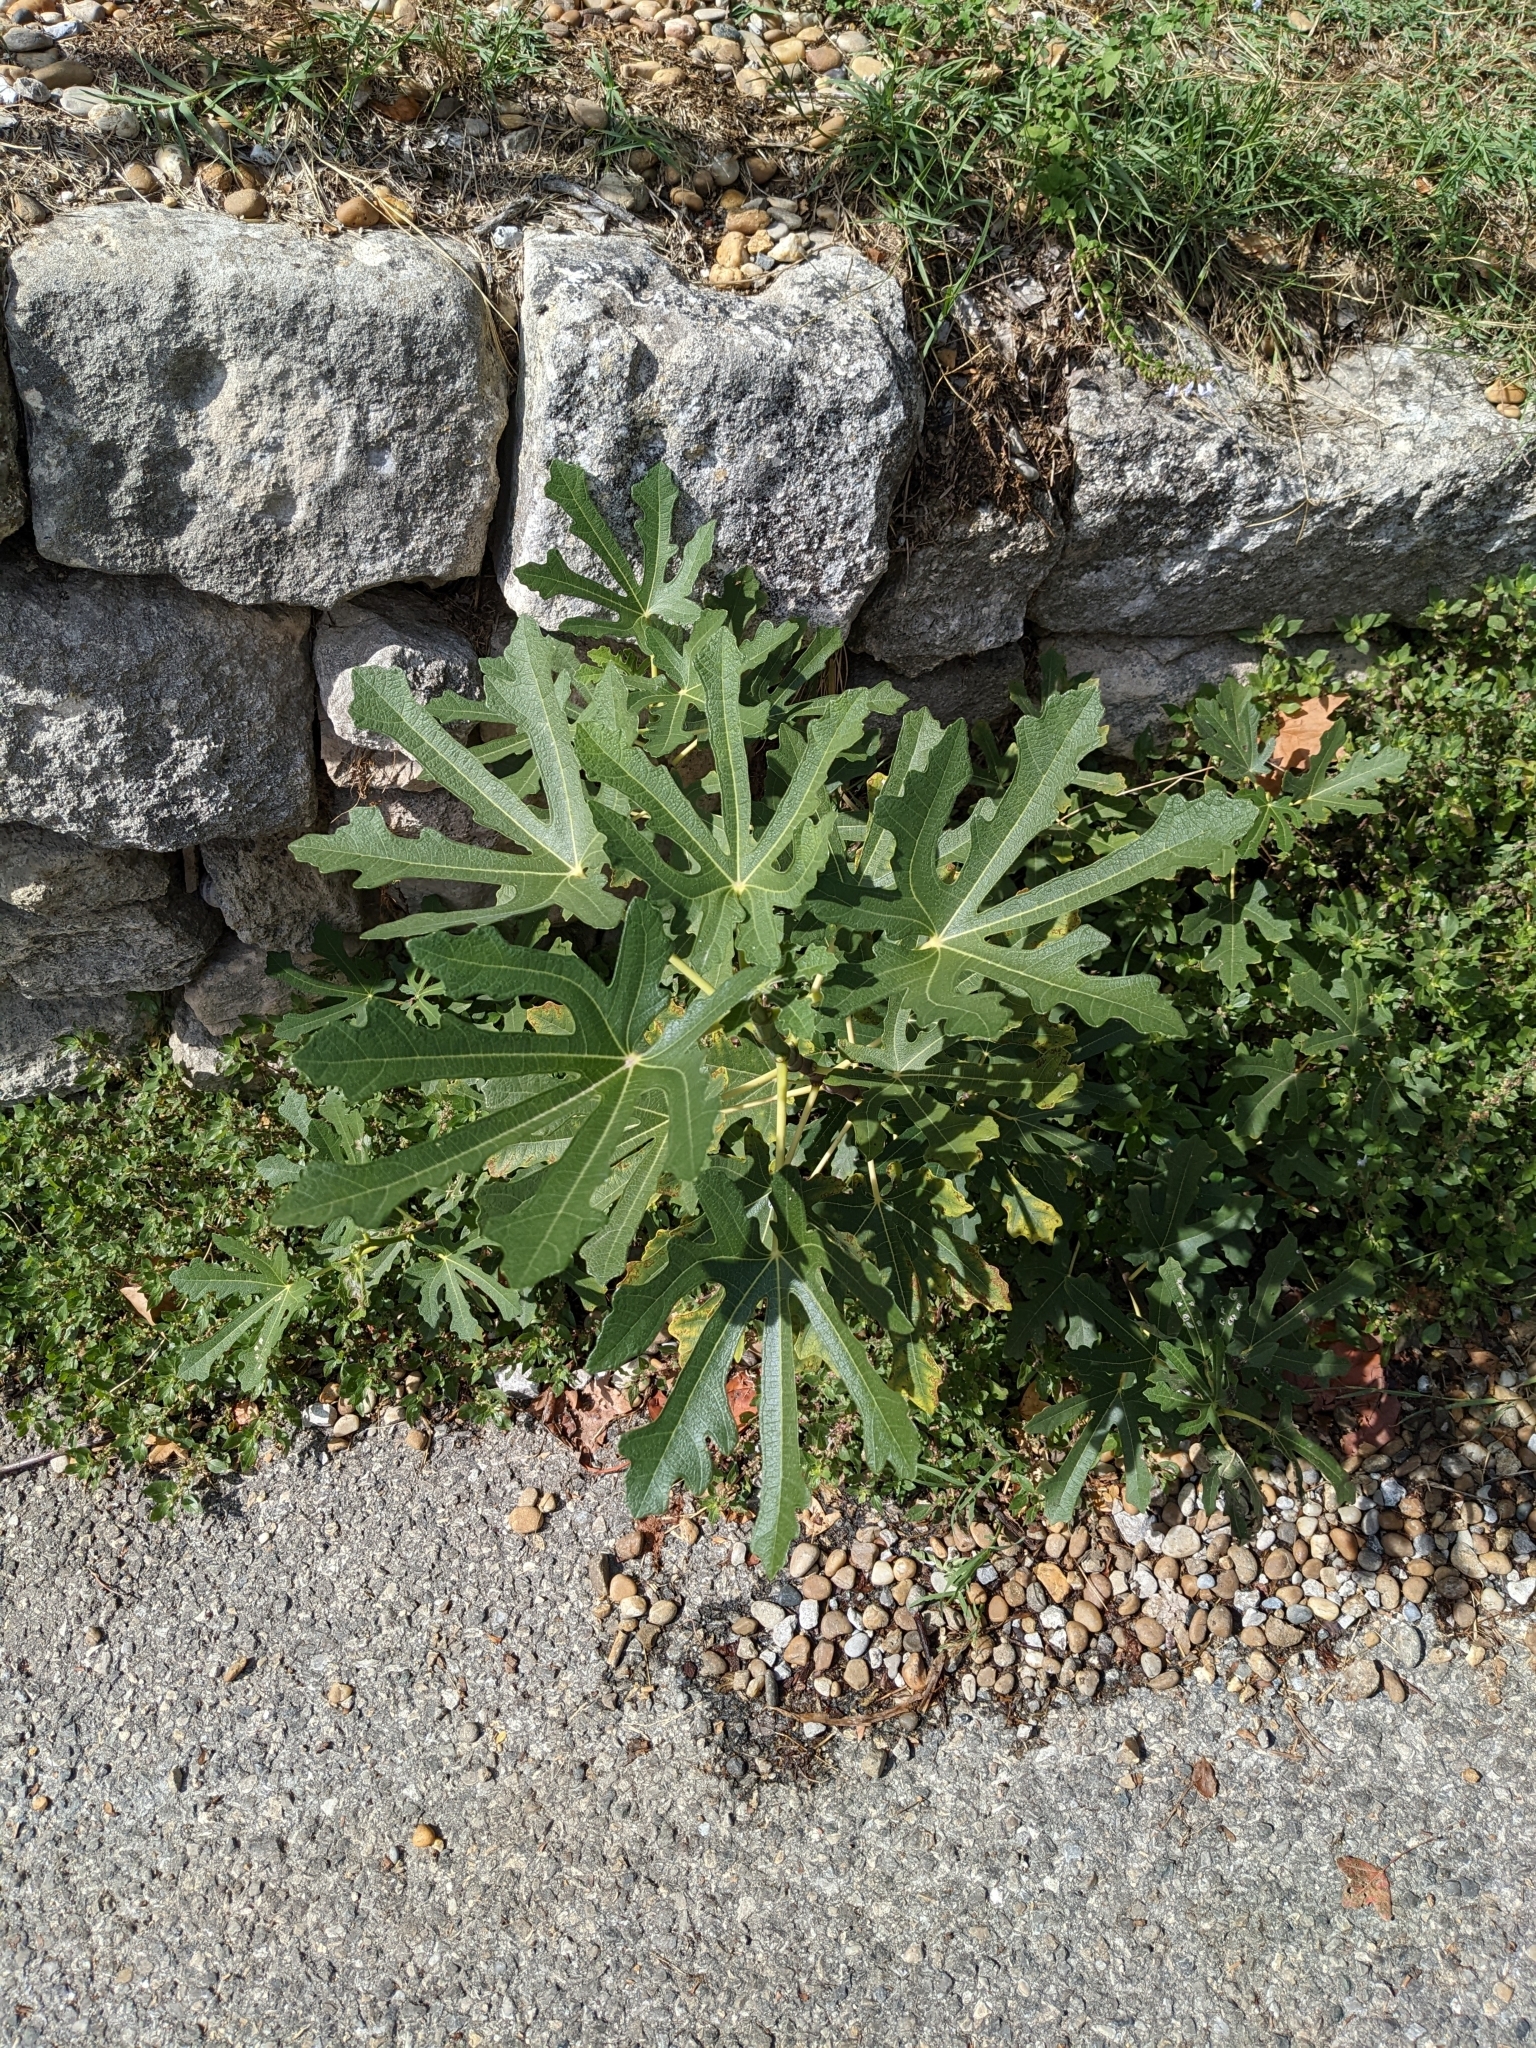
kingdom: Plantae
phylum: Tracheophyta
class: Magnoliopsida
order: Rosales
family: Moraceae
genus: Ficus
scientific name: Ficus carica
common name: Fig
